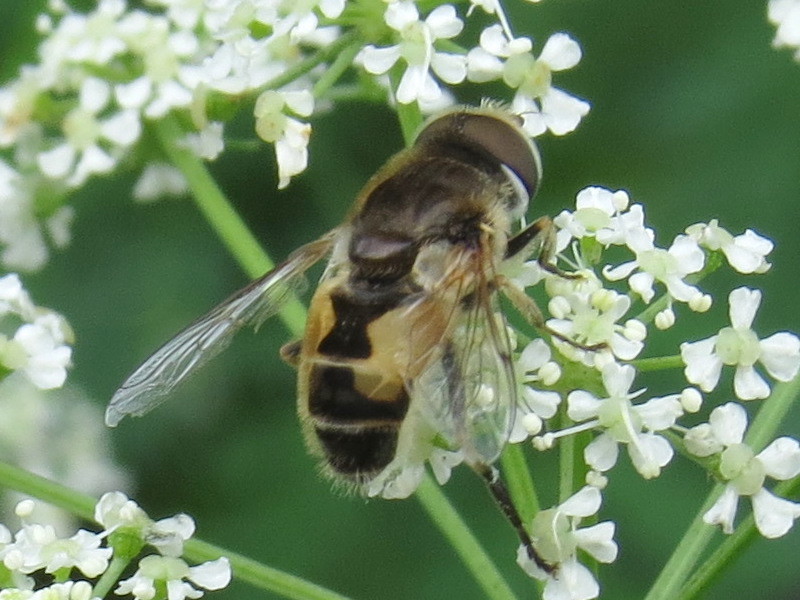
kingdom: Animalia
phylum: Arthropoda
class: Insecta
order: Diptera
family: Syrphidae
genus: Eristalis
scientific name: Eristalis arbustorum
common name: Hover fly
